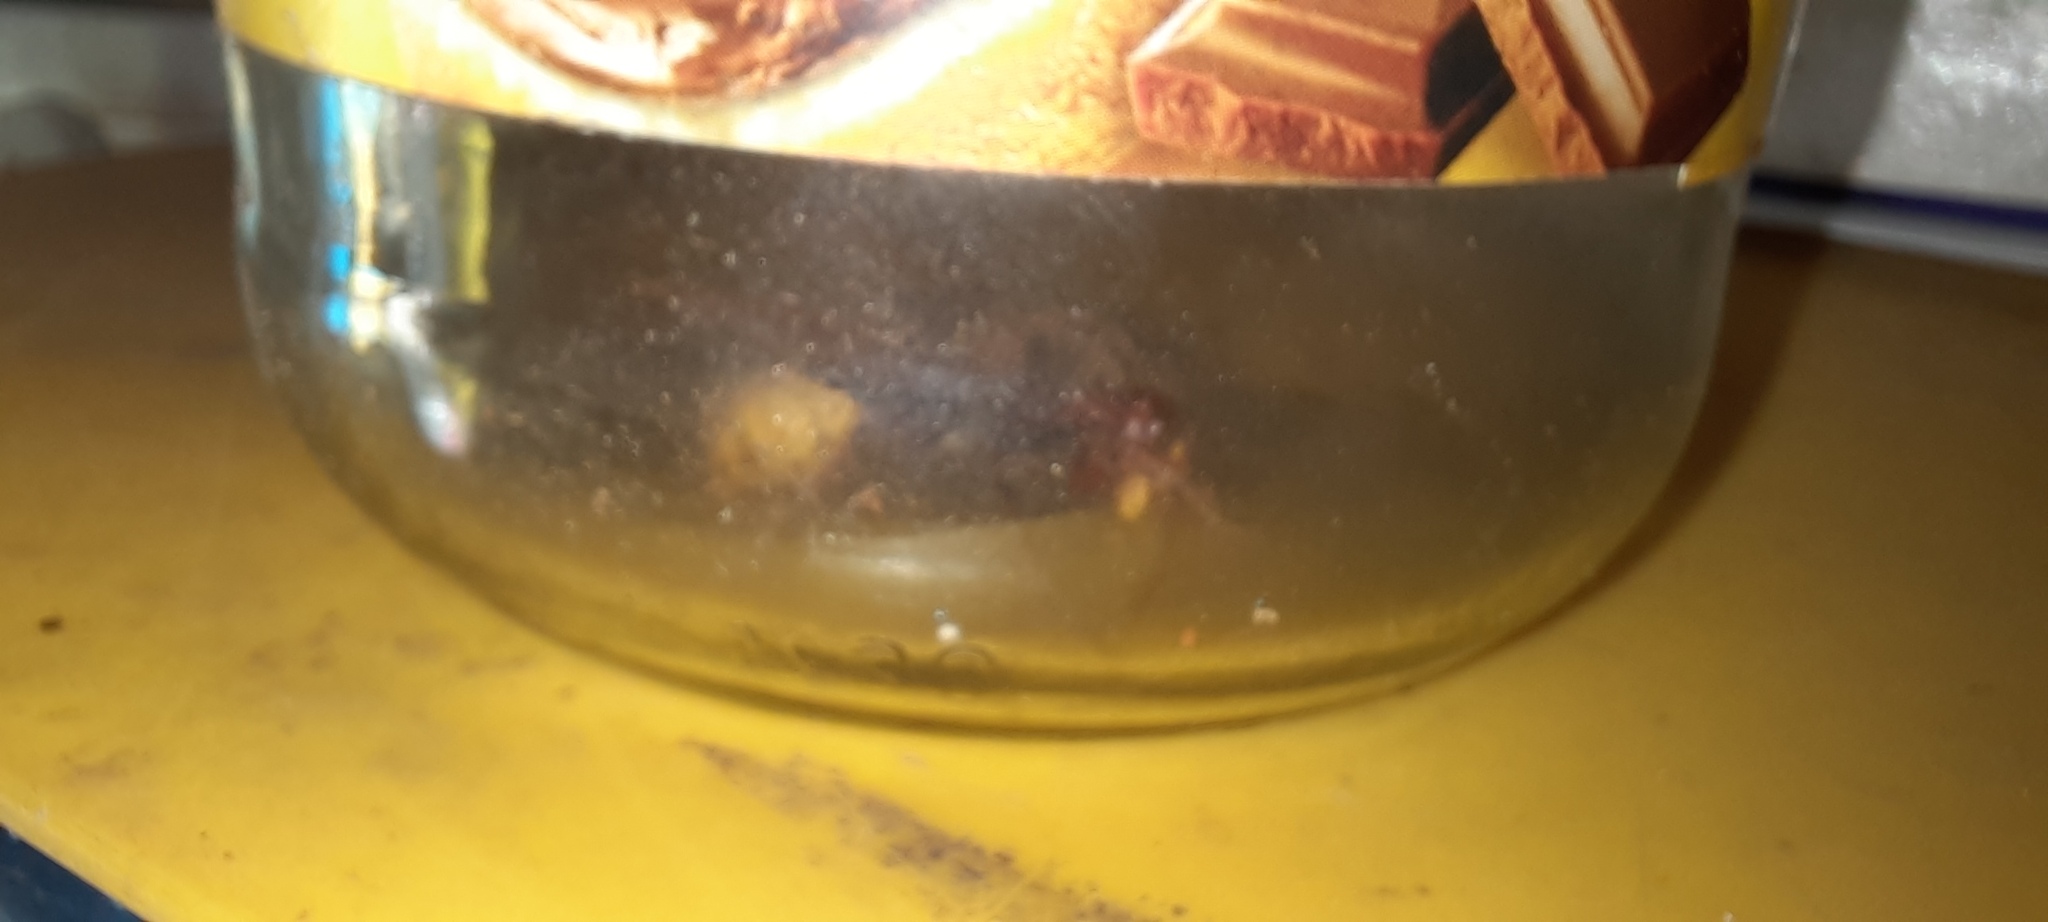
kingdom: Animalia
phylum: Arthropoda
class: Insecta
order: Hymenoptera
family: Vespidae
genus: Vespa
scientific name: Vespa crabro
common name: Hornet
